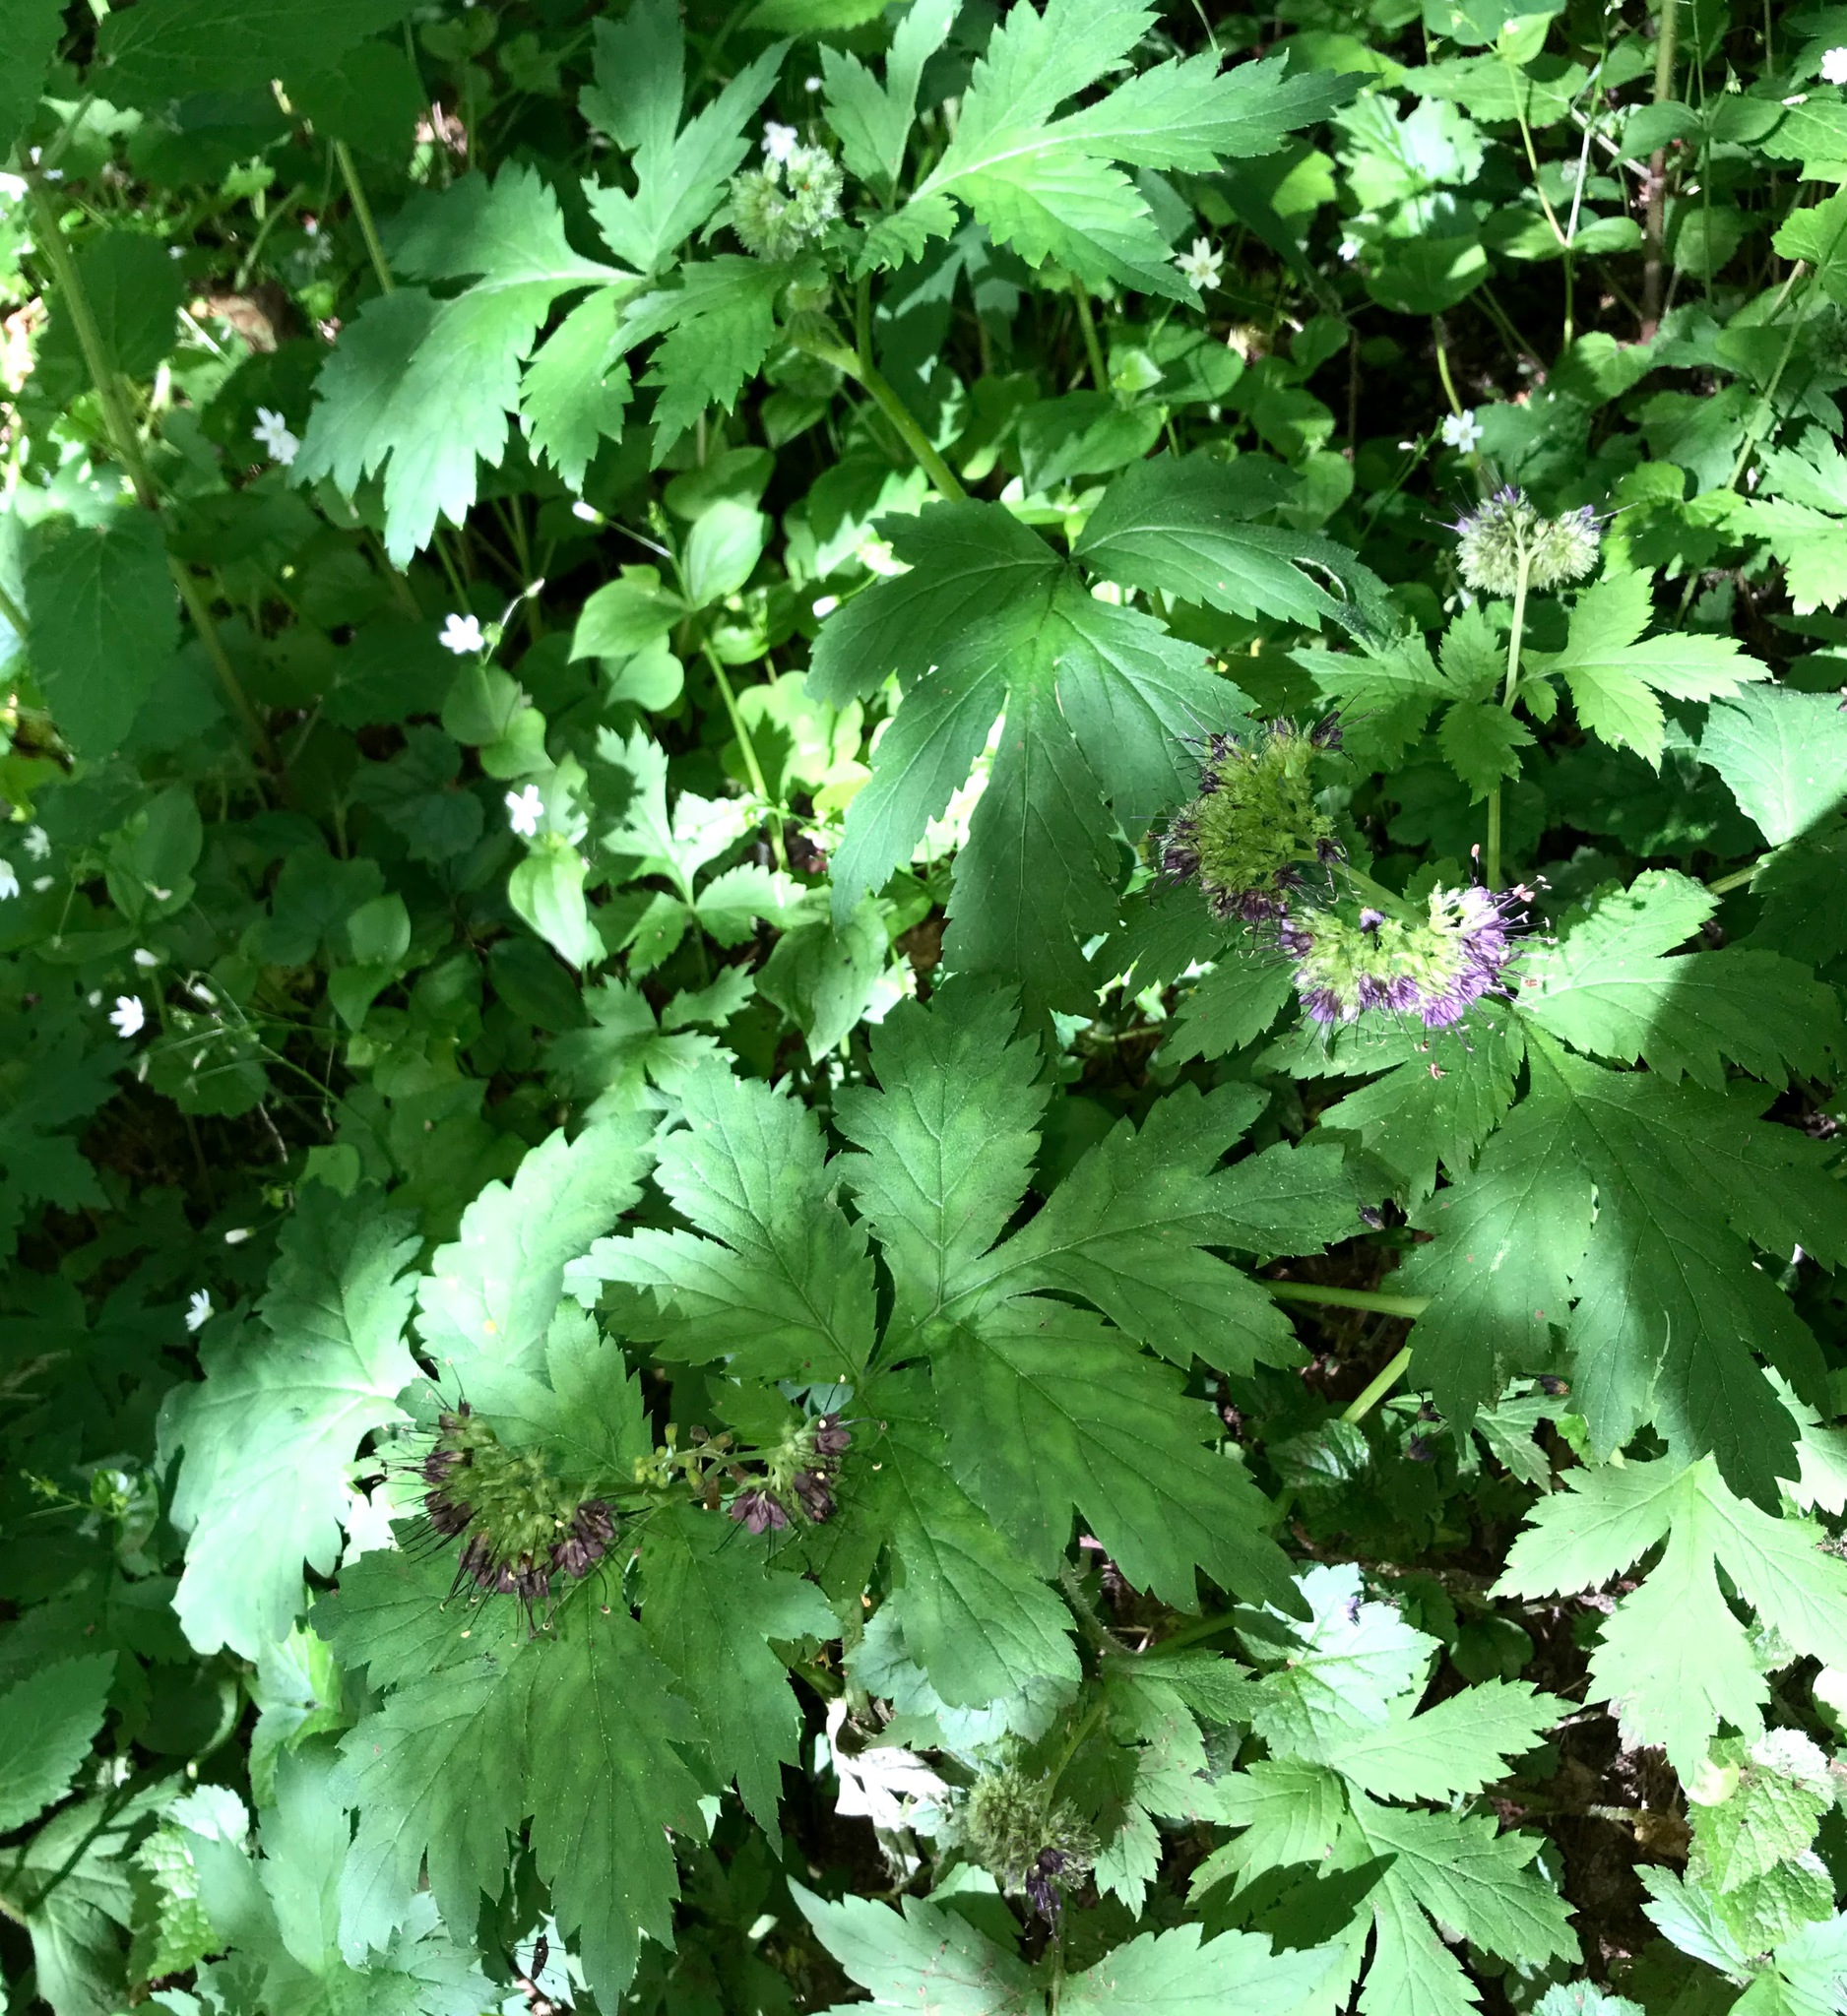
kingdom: Plantae
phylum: Tracheophyta
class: Magnoliopsida
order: Boraginales
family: Hydrophyllaceae
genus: Hydrophyllum
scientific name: Hydrophyllum tenuipes
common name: Pacific waterleaf
